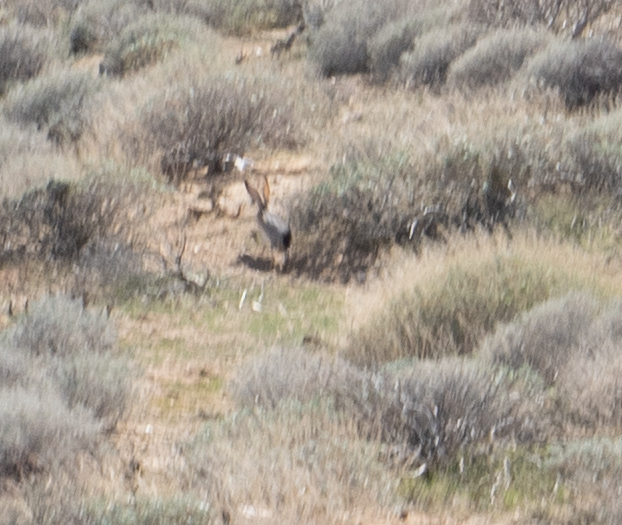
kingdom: Animalia
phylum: Chordata
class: Mammalia
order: Lagomorpha
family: Leporidae
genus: Lepus
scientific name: Lepus californicus
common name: Black-tailed jackrabbit
